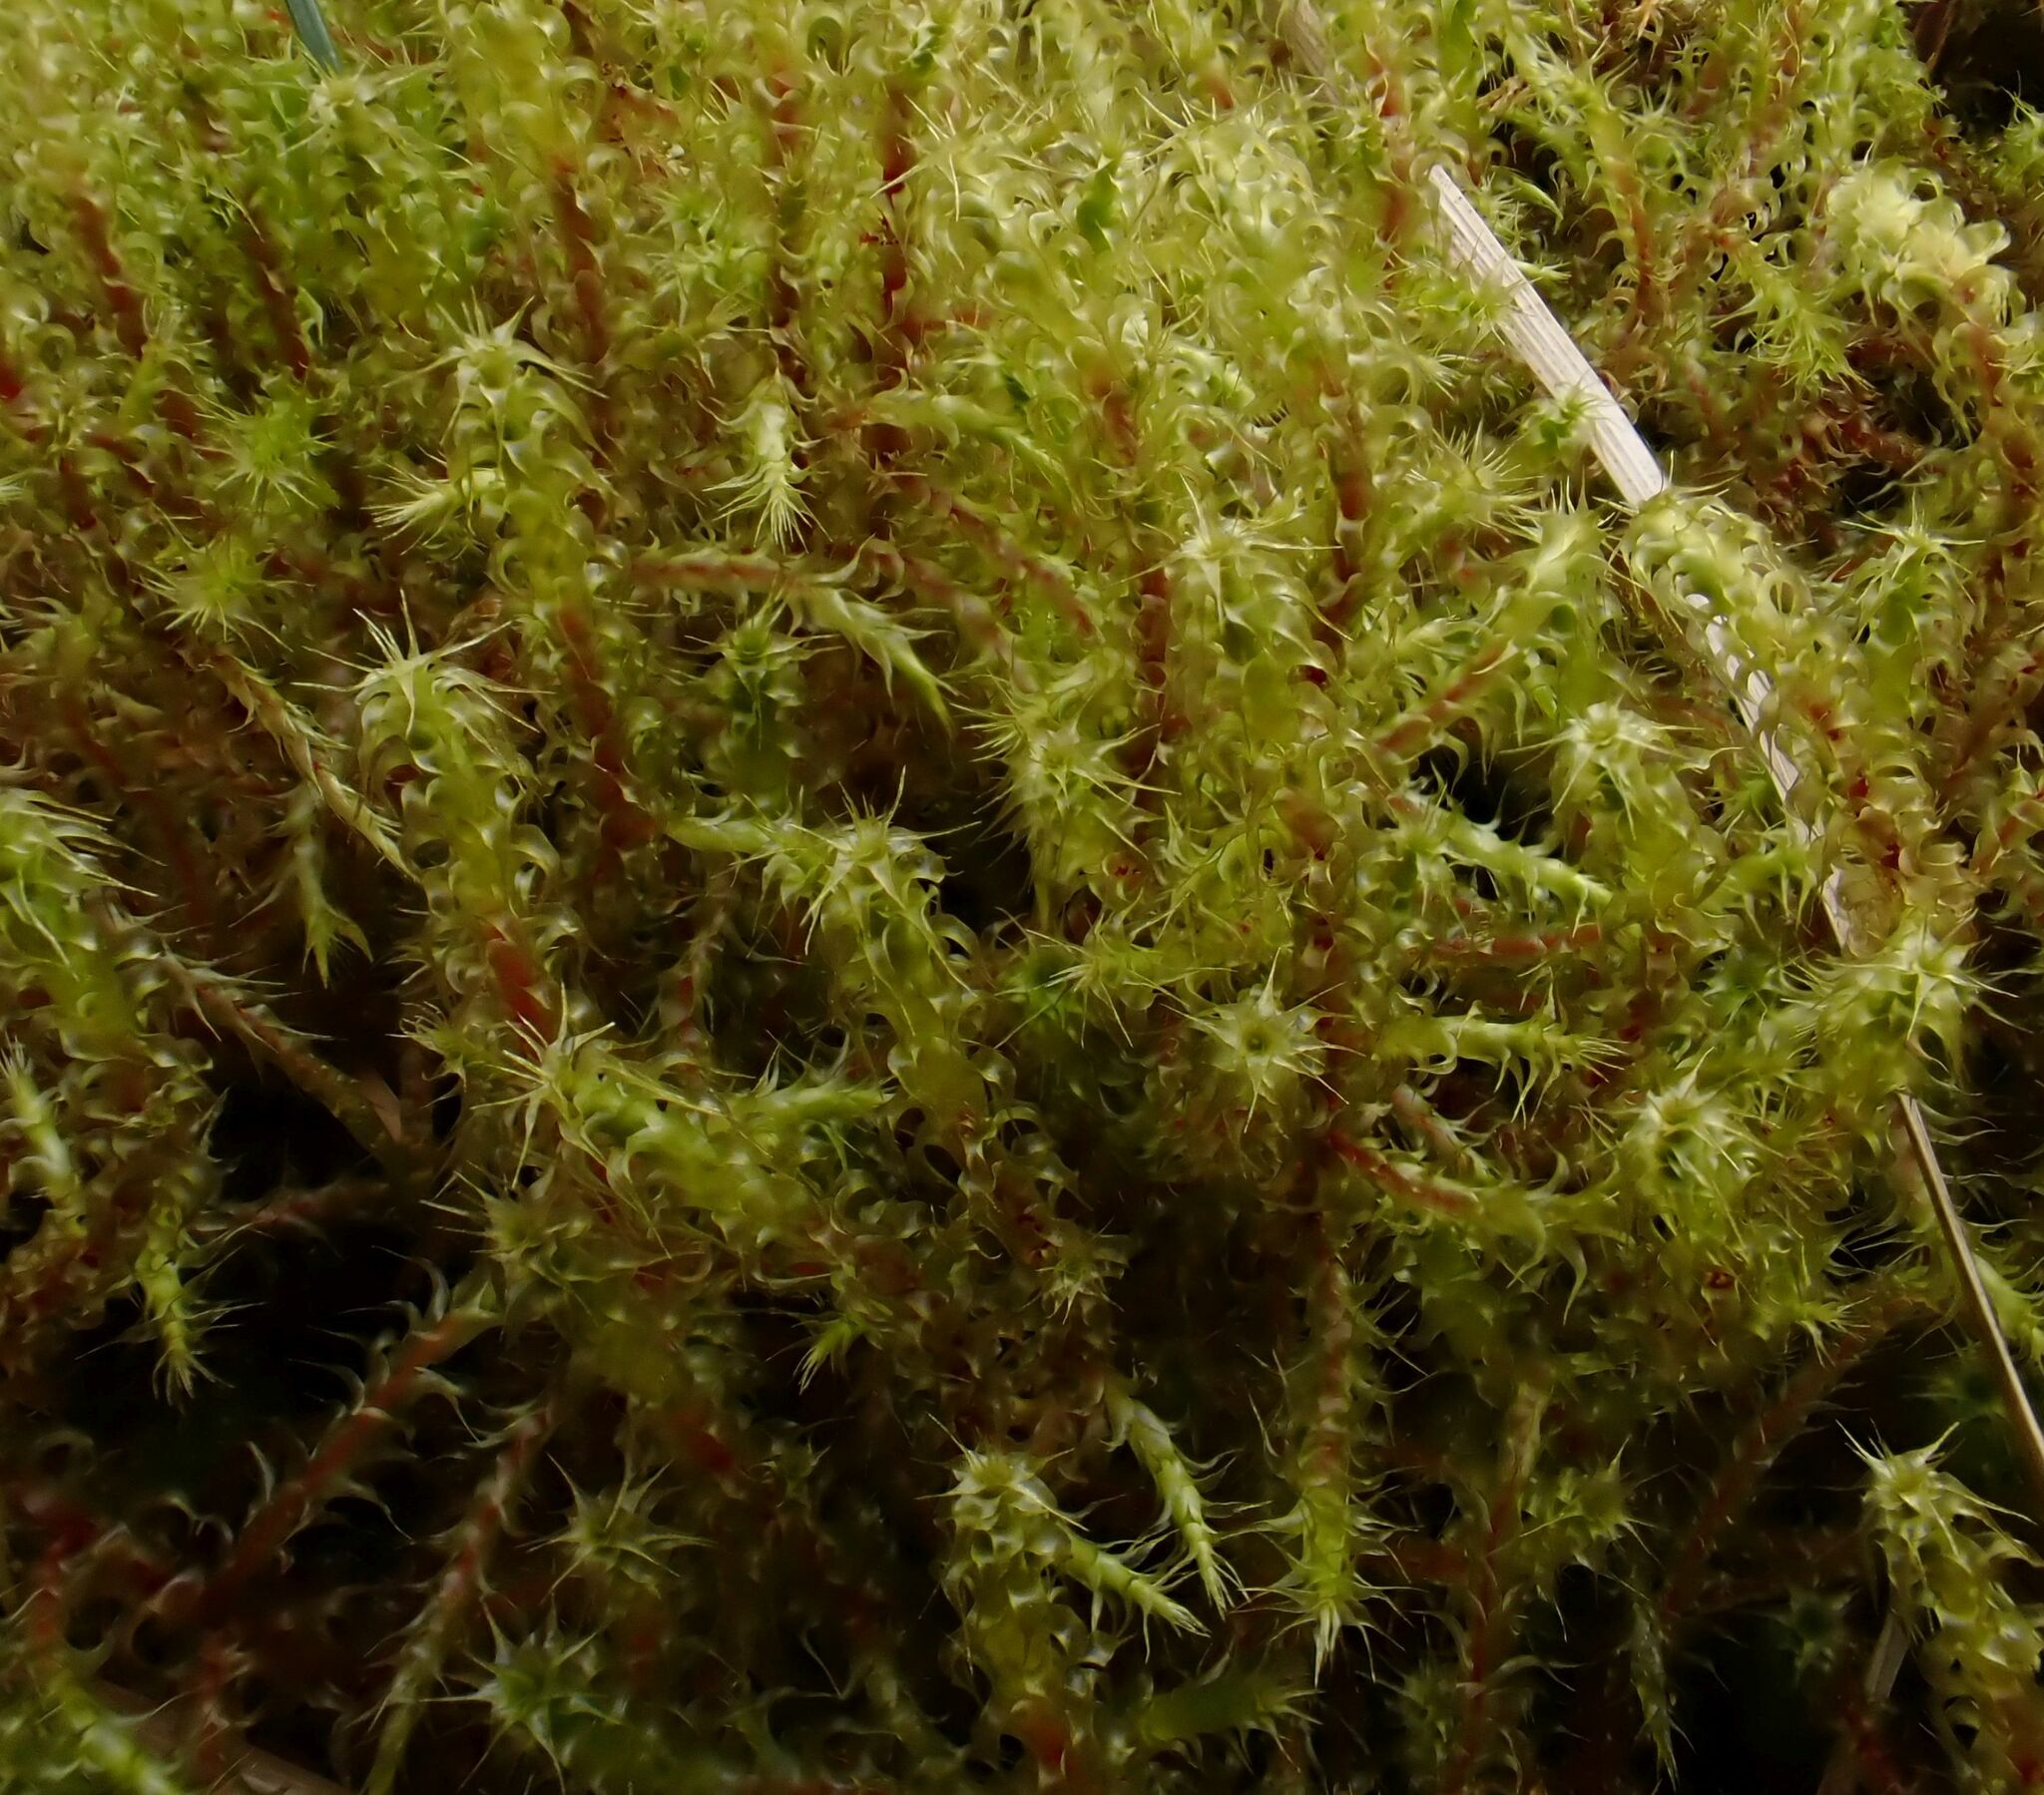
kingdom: Plantae
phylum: Bryophyta
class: Bryopsida
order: Hypnales
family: Hylocomiaceae
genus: Rhytidiadelphus
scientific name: Rhytidiadelphus squarrosus
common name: Springy turf-moss
